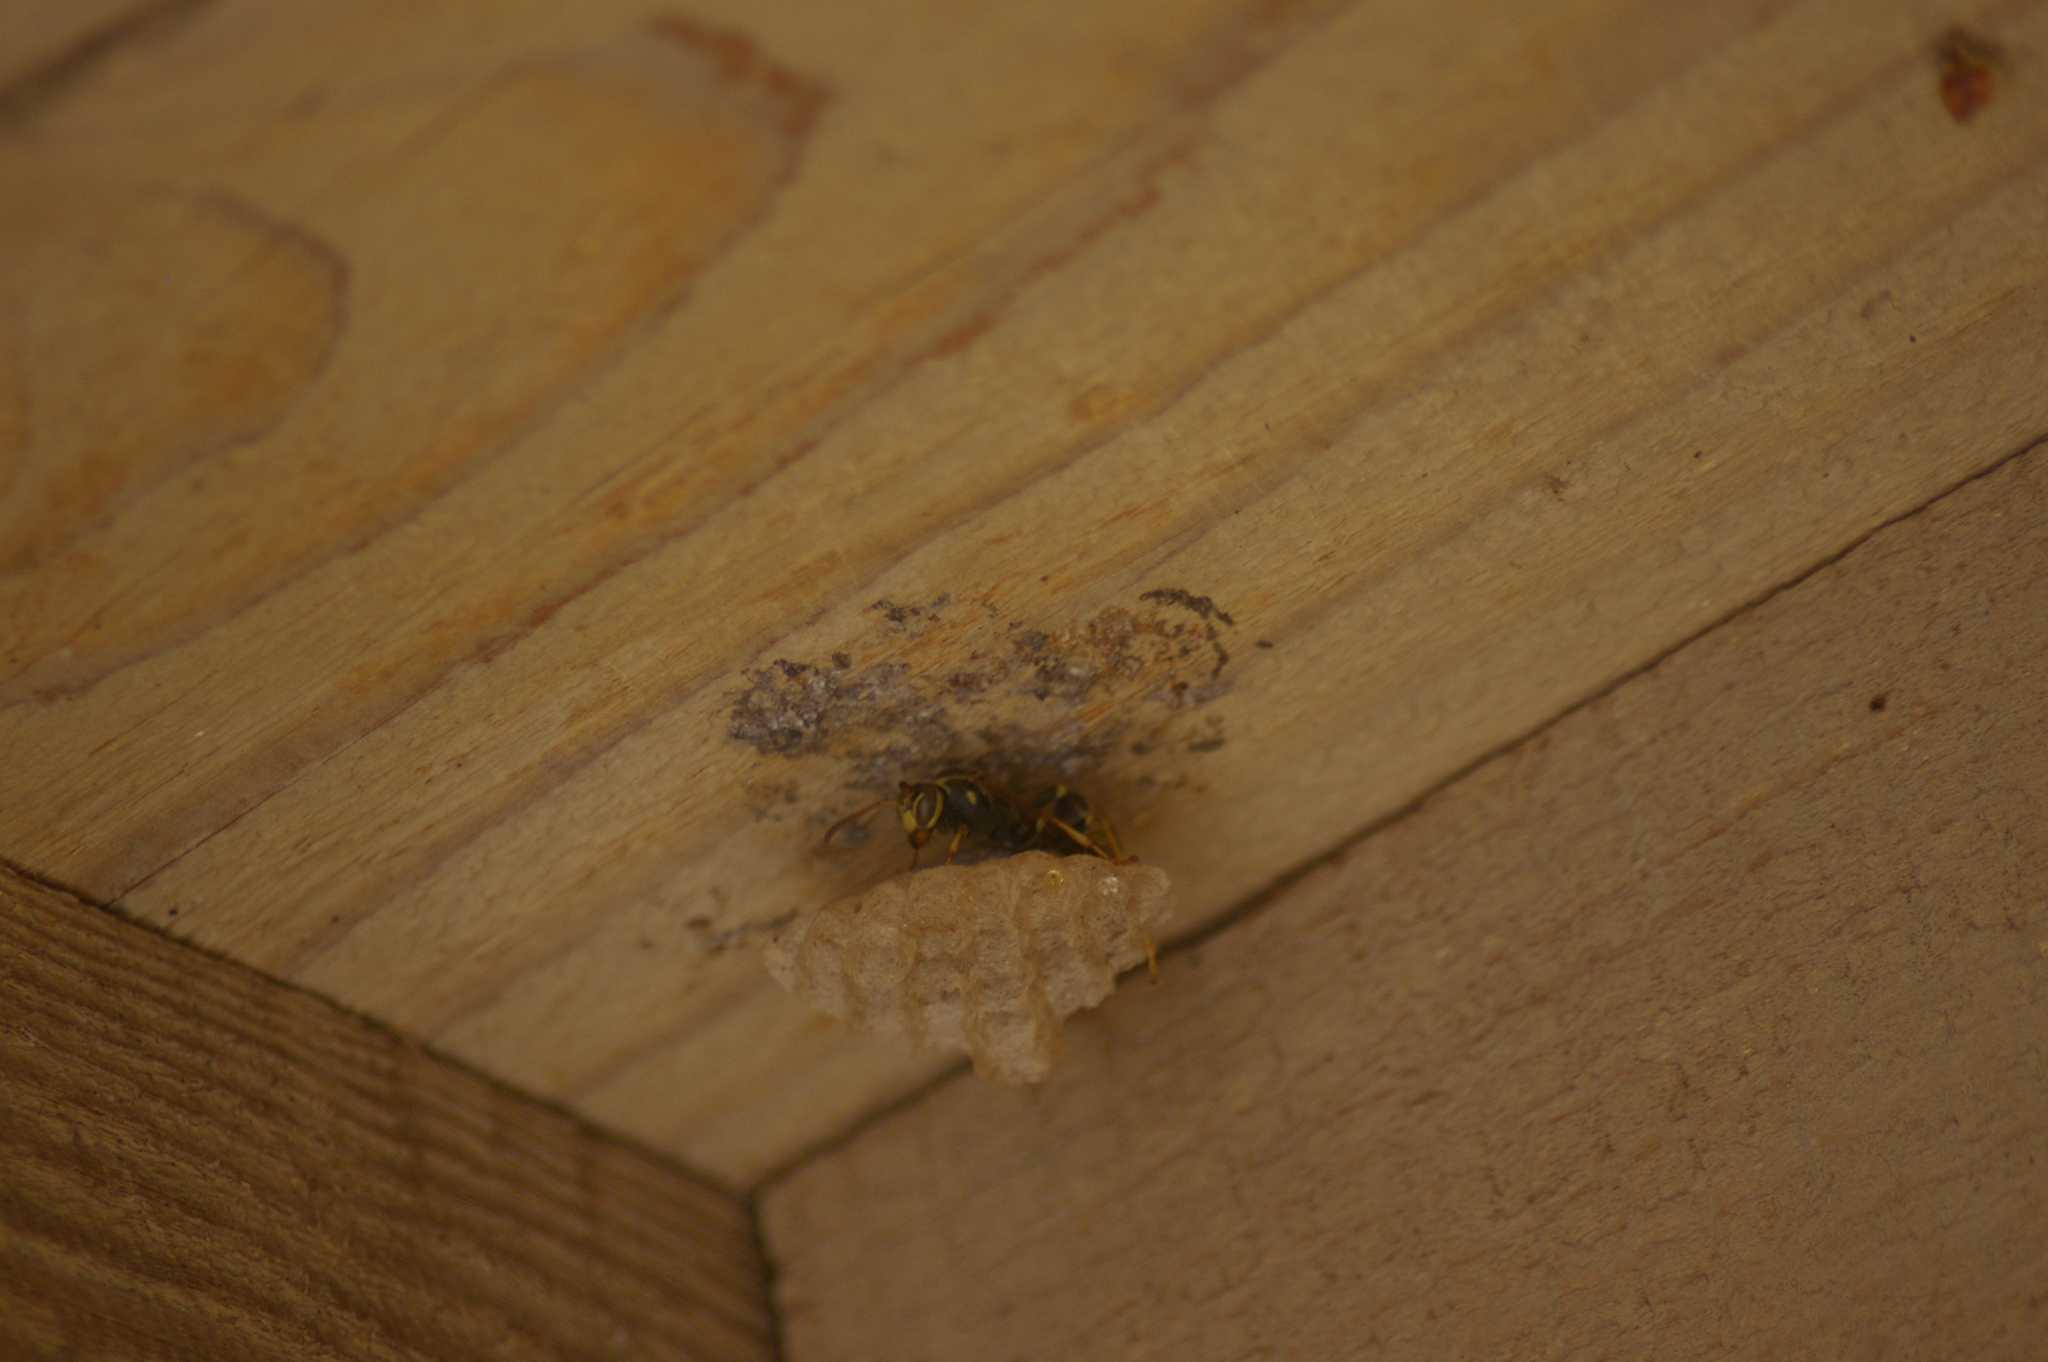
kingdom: Animalia
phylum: Arthropoda
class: Insecta
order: Hymenoptera
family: Vespidae
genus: Mischocyttarus
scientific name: Mischocyttarus flavitarsis
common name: Wasp
